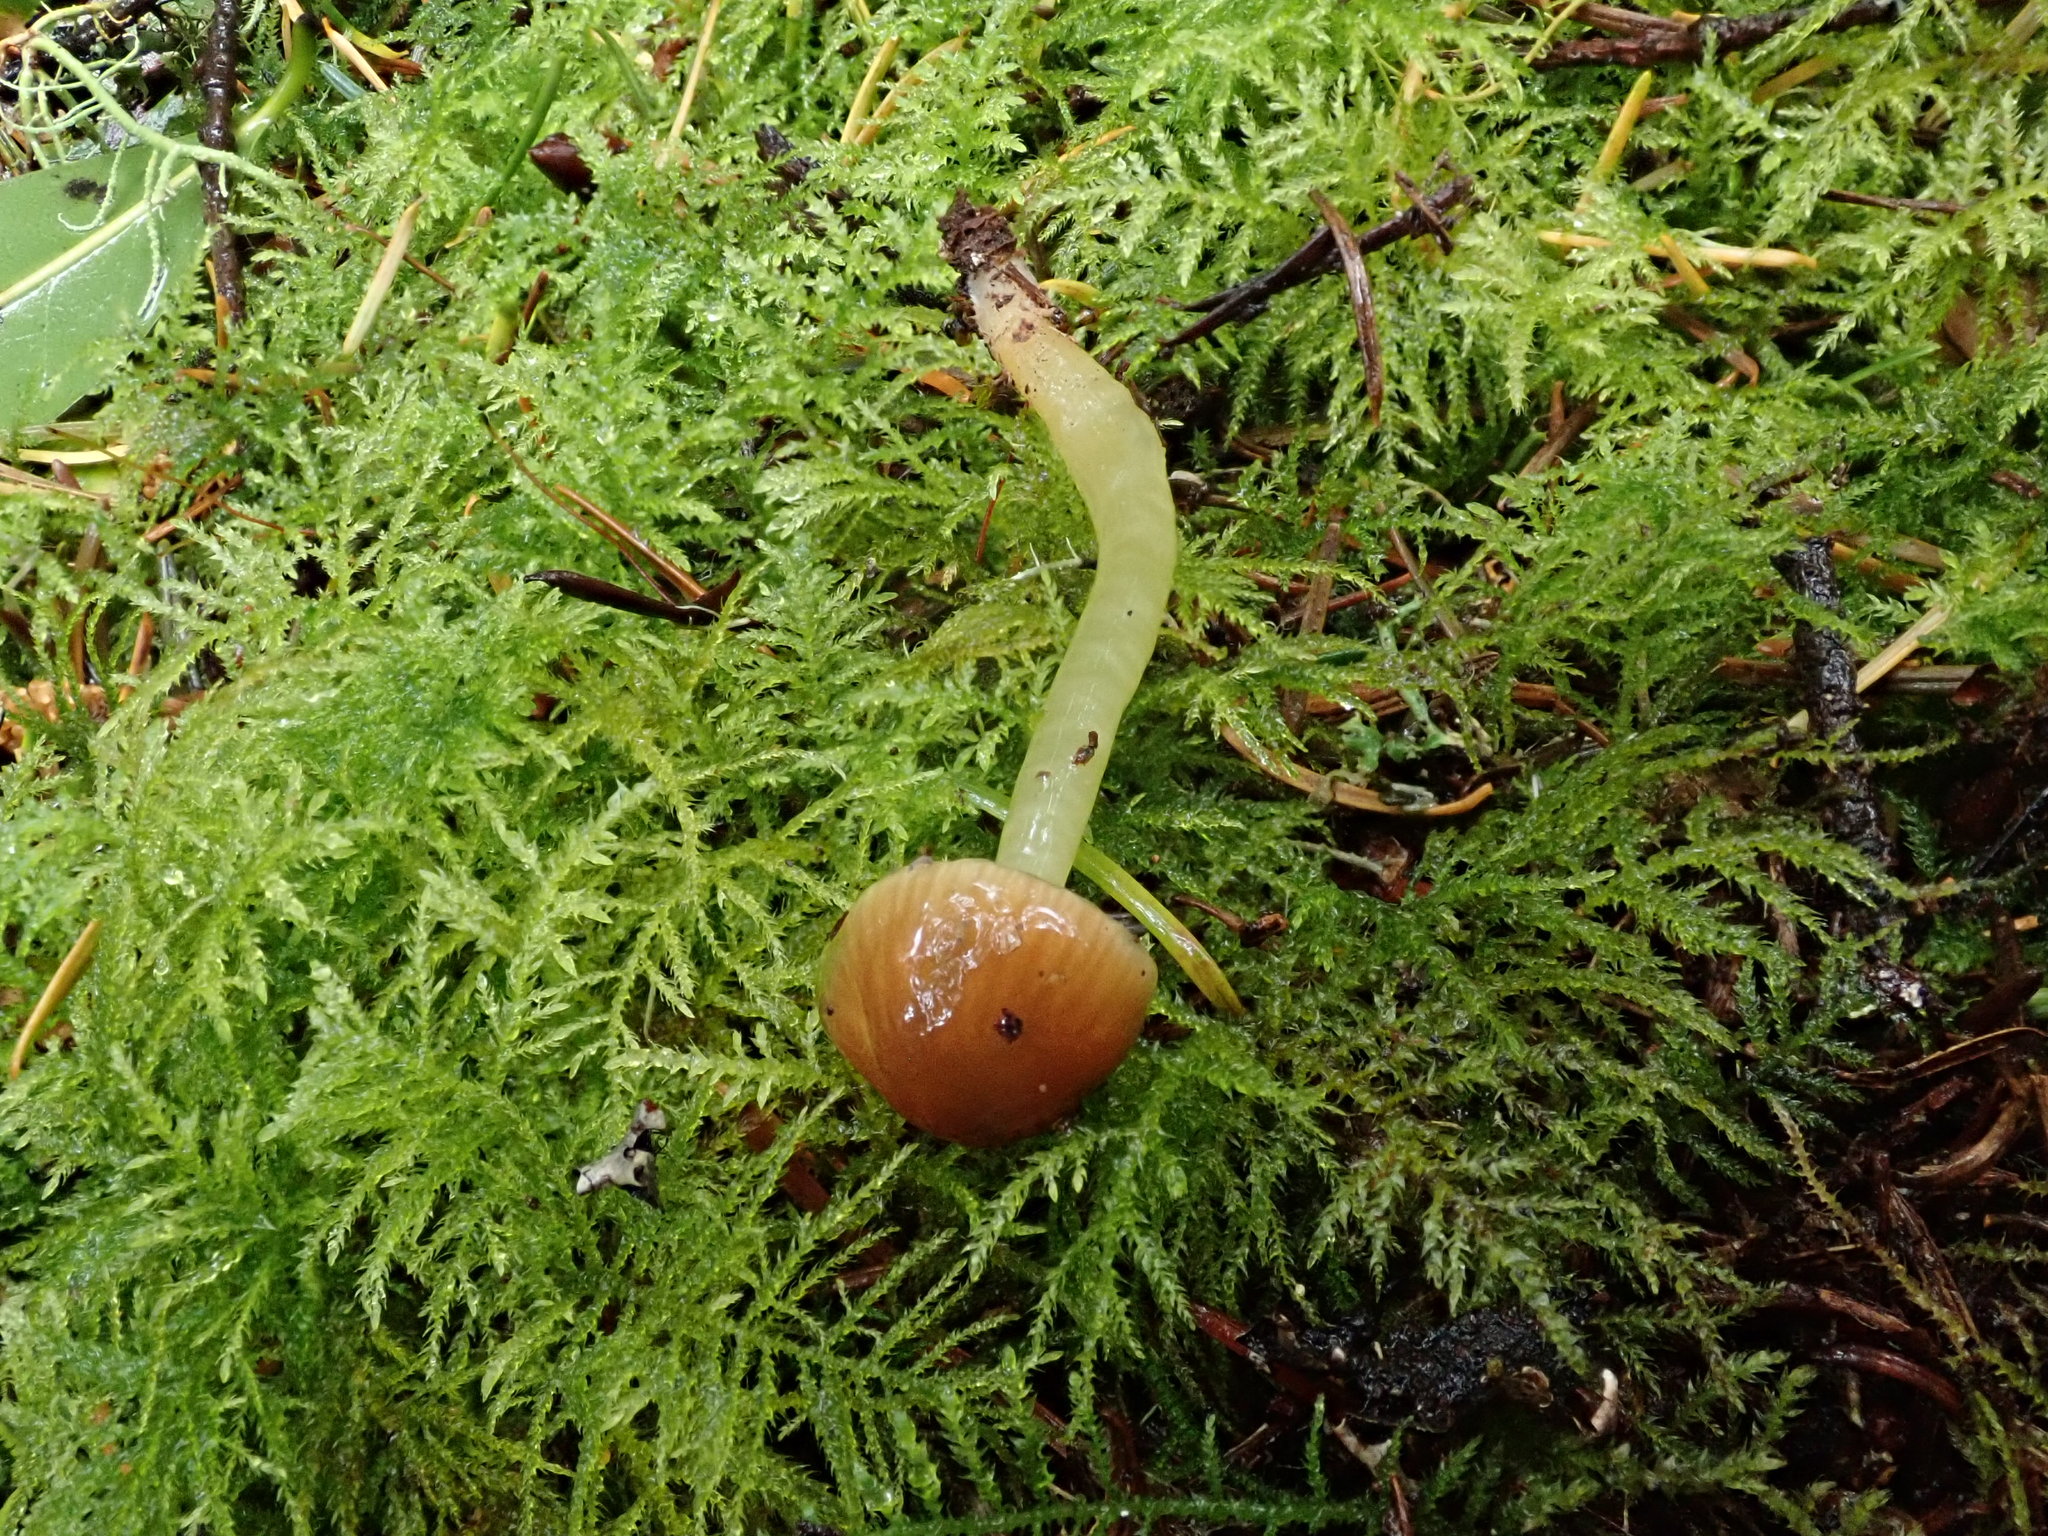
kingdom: Fungi
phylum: Basidiomycota
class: Agaricomycetes
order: Agaricales
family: Hygrophoraceae
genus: Gliophorus
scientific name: Gliophorus psittacinus
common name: Parrot wax-cap
